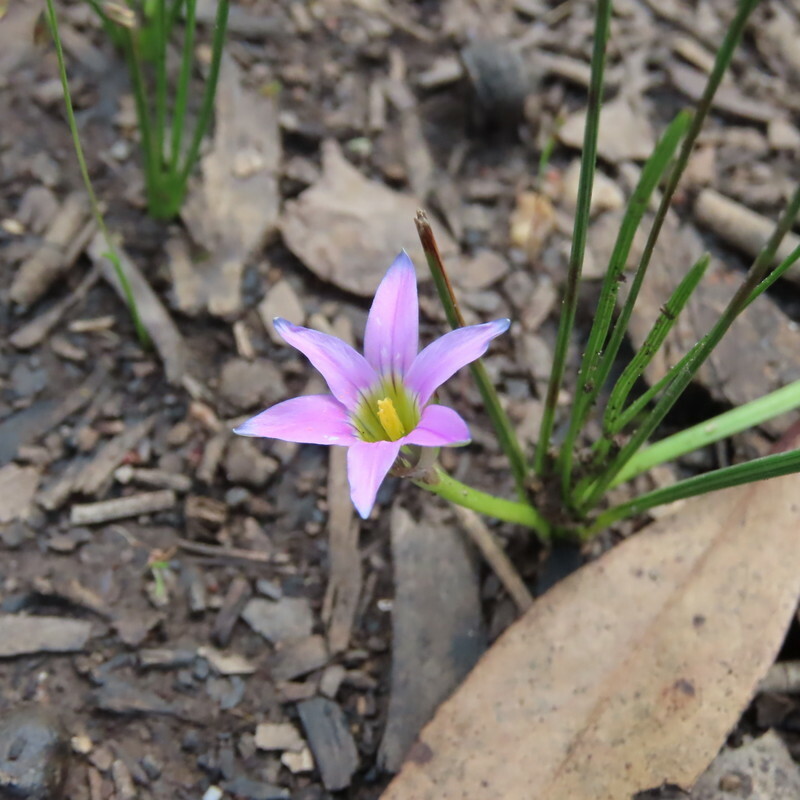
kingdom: Plantae
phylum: Tracheophyta
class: Liliopsida
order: Asparagales
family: Iridaceae
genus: Romulea
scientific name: Romulea rosea
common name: Oniongrass
